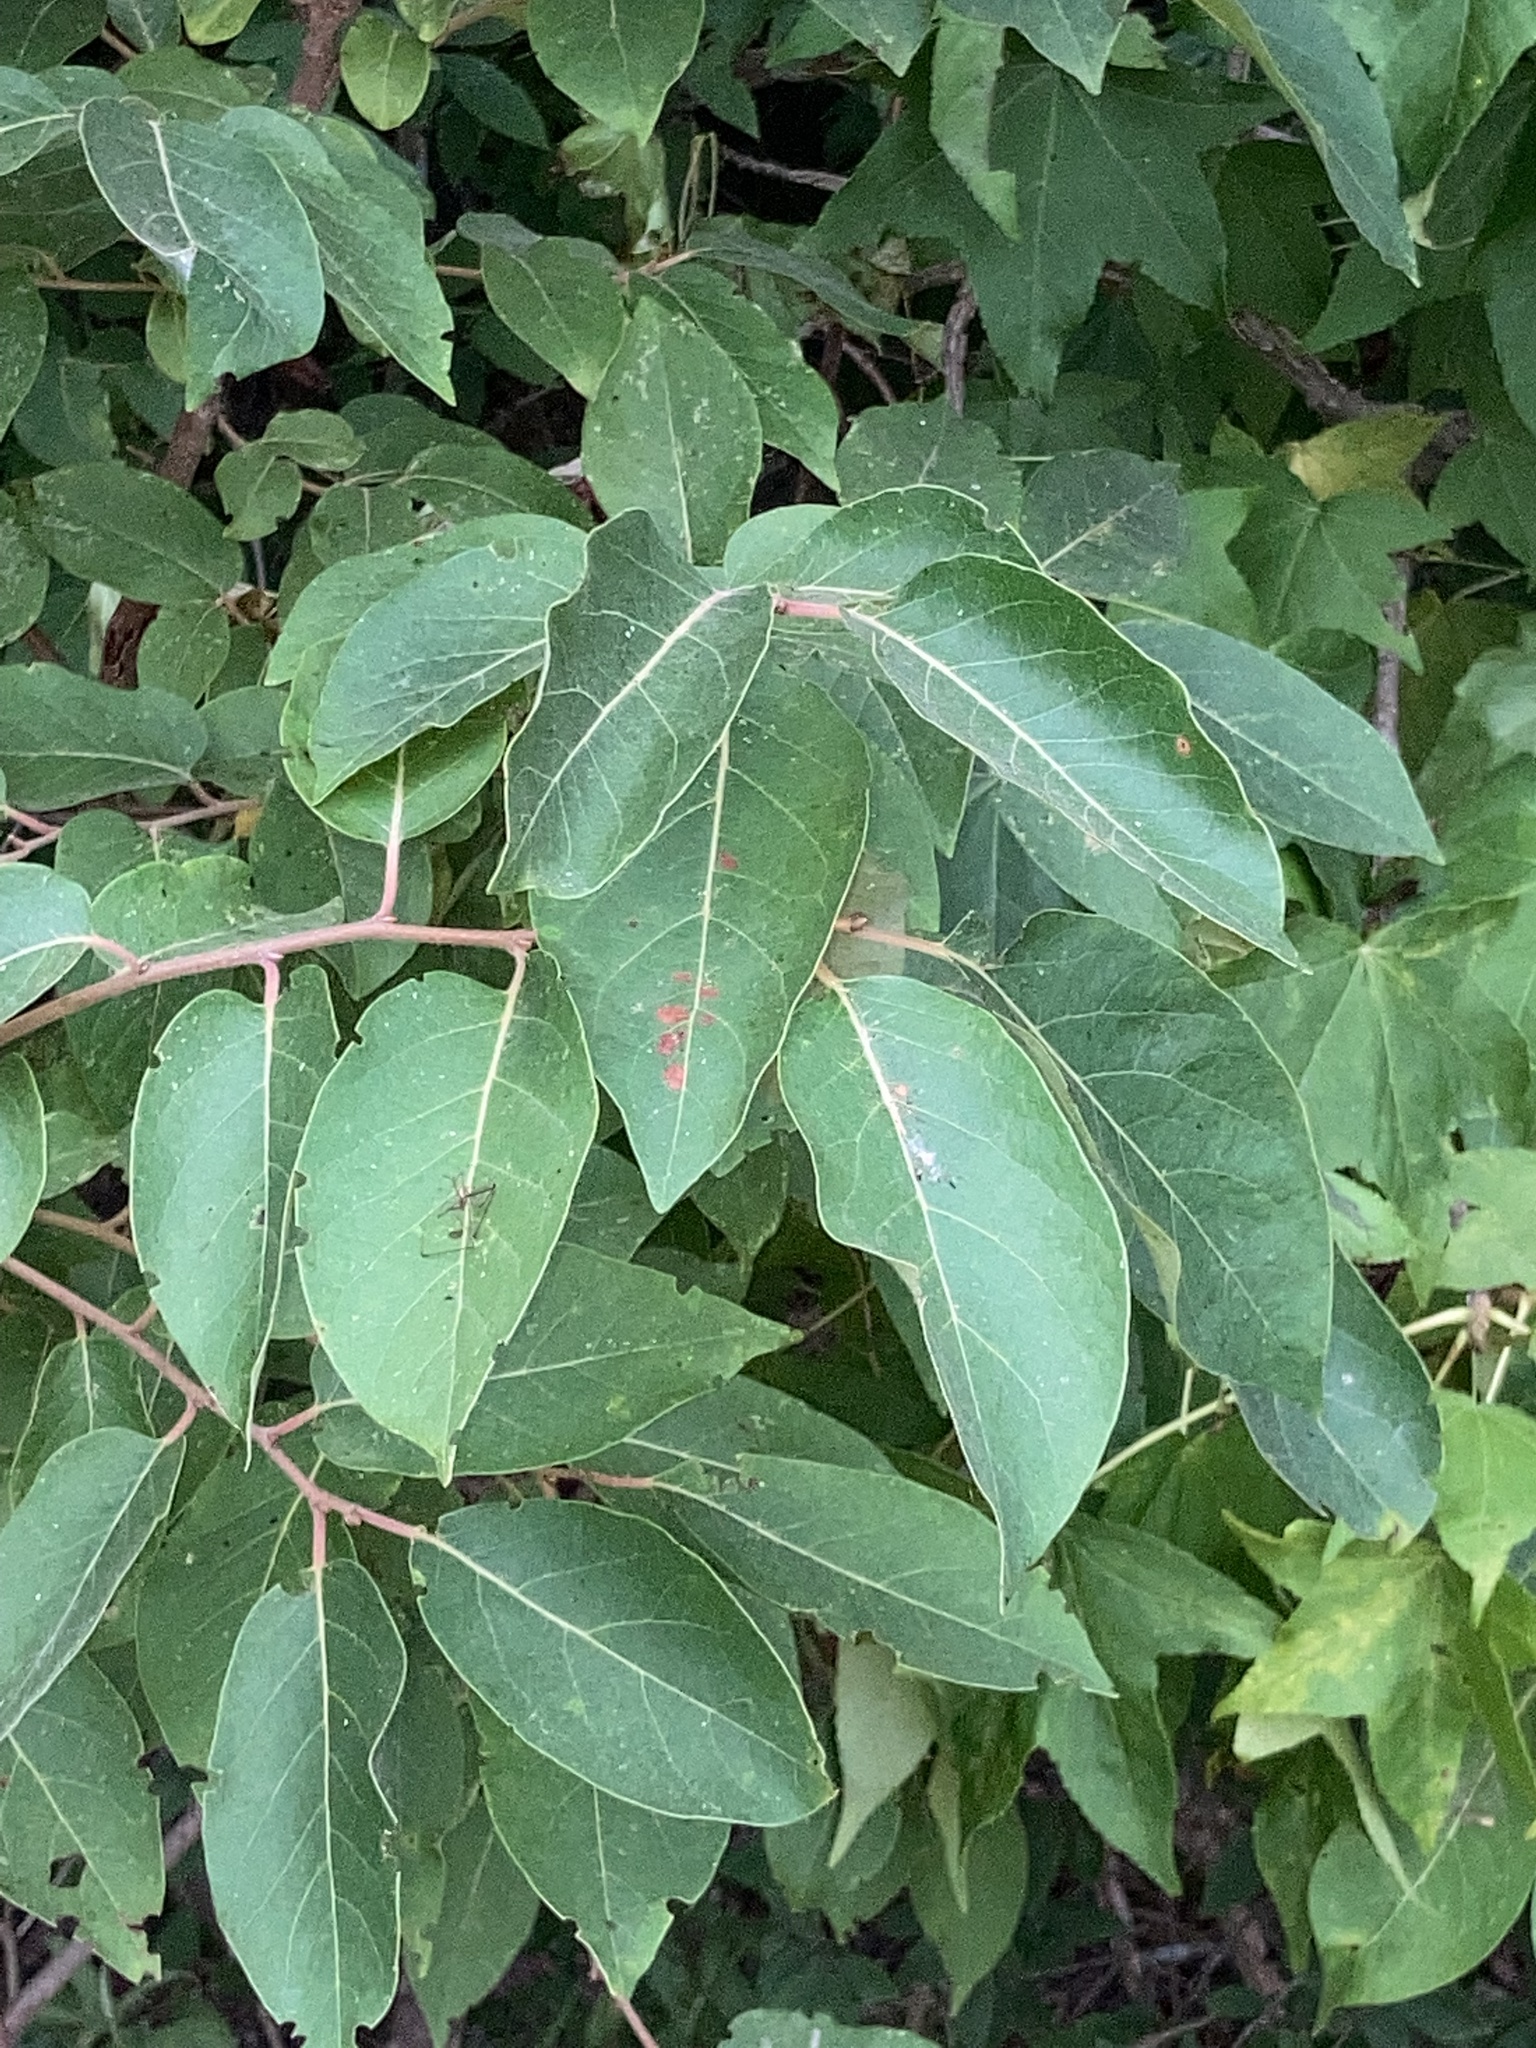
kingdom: Plantae
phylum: Tracheophyta
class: Magnoliopsida
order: Ericales
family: Ebenaceae
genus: Diospyros
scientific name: Diospyros virginiana
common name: Persimmon
